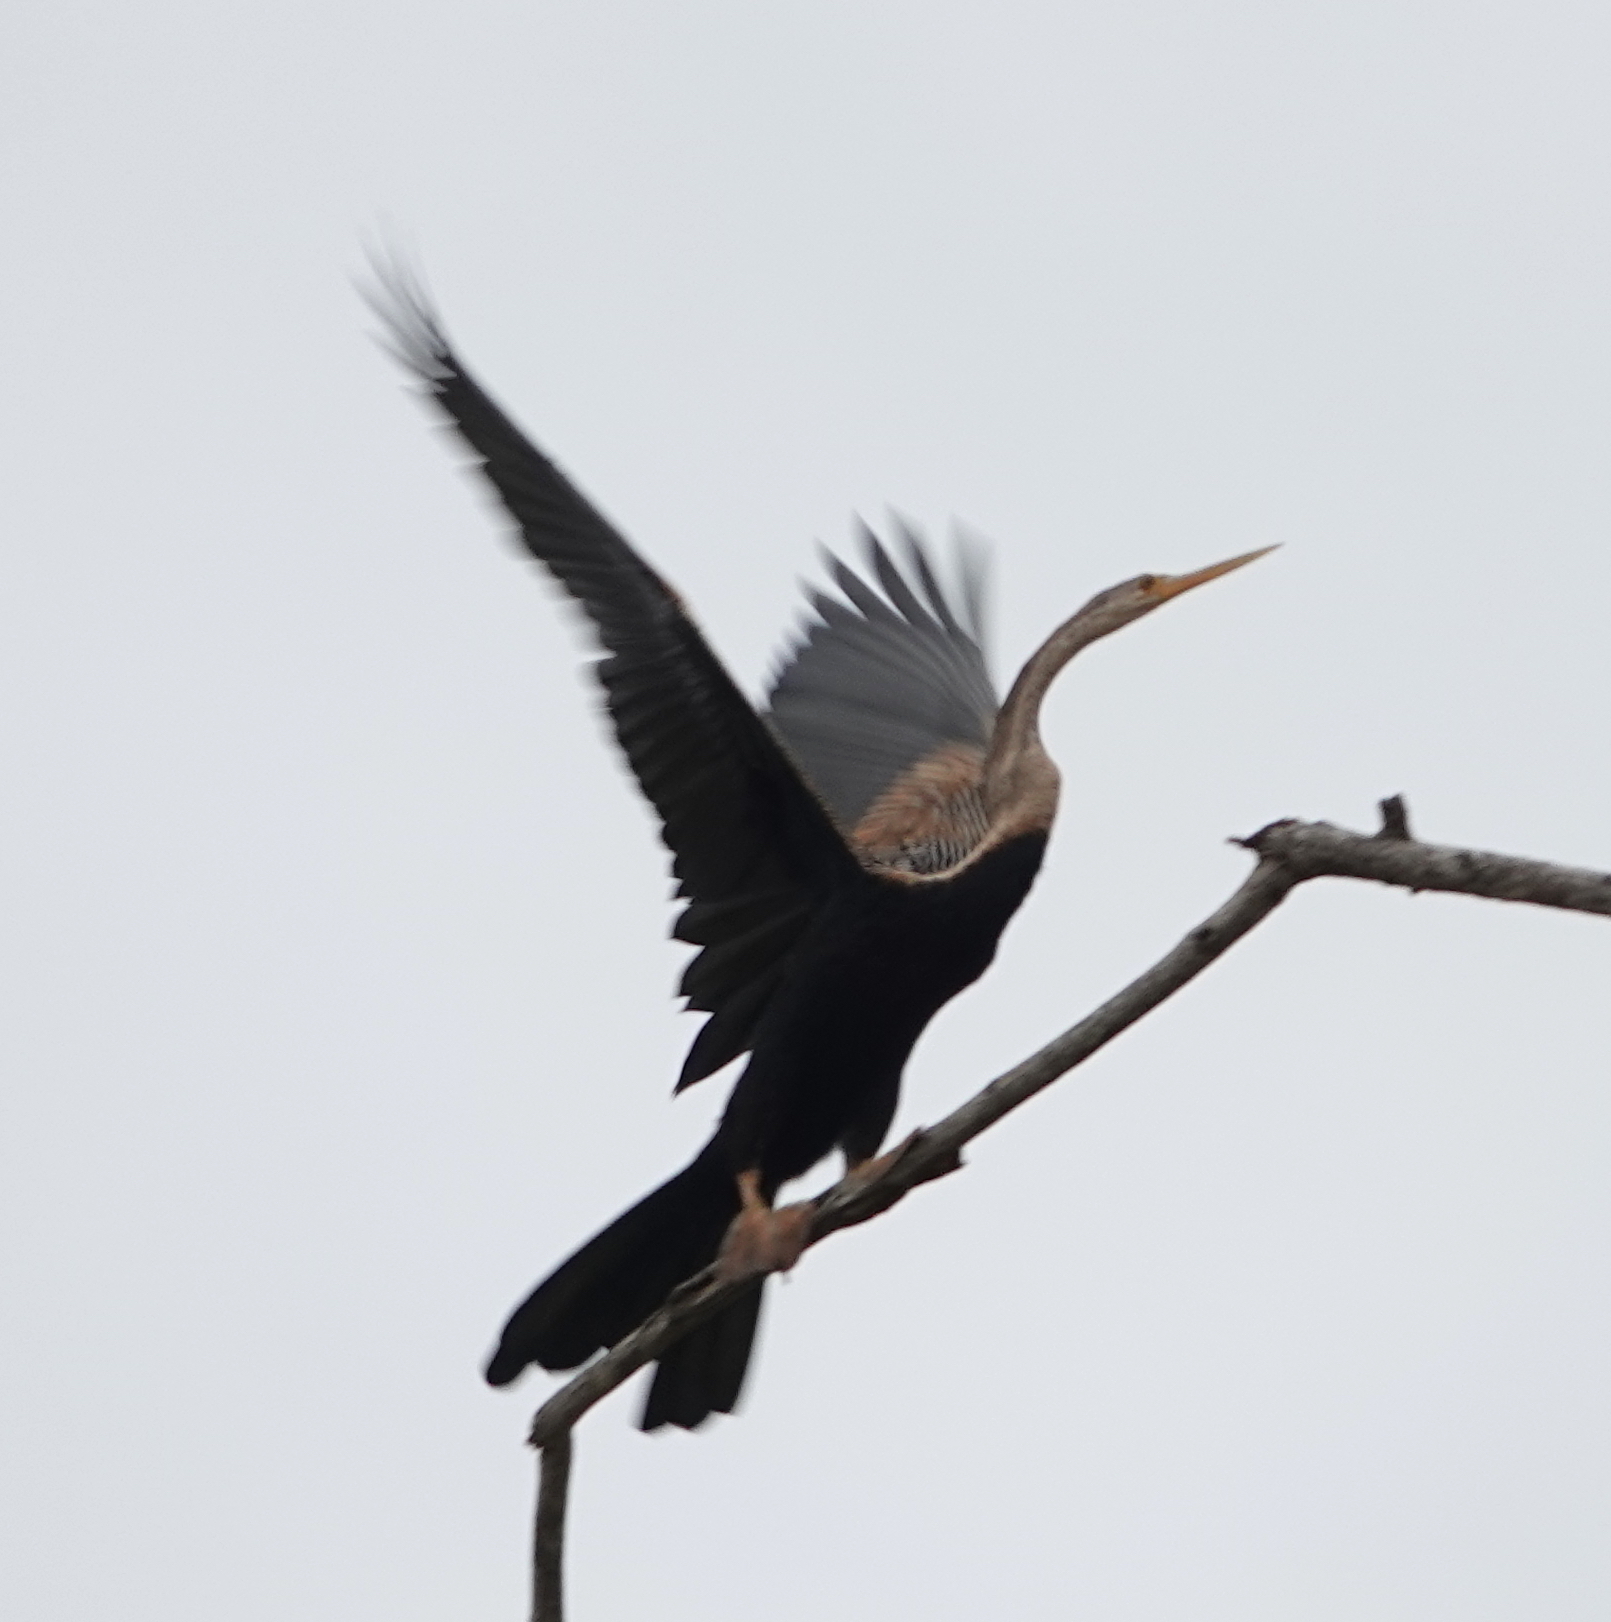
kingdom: Animalia
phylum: Chordata
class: Aves
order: Suliformes
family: Anhingidae
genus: Anhinga
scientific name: Anhinga melanogaster
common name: Oriental darter
